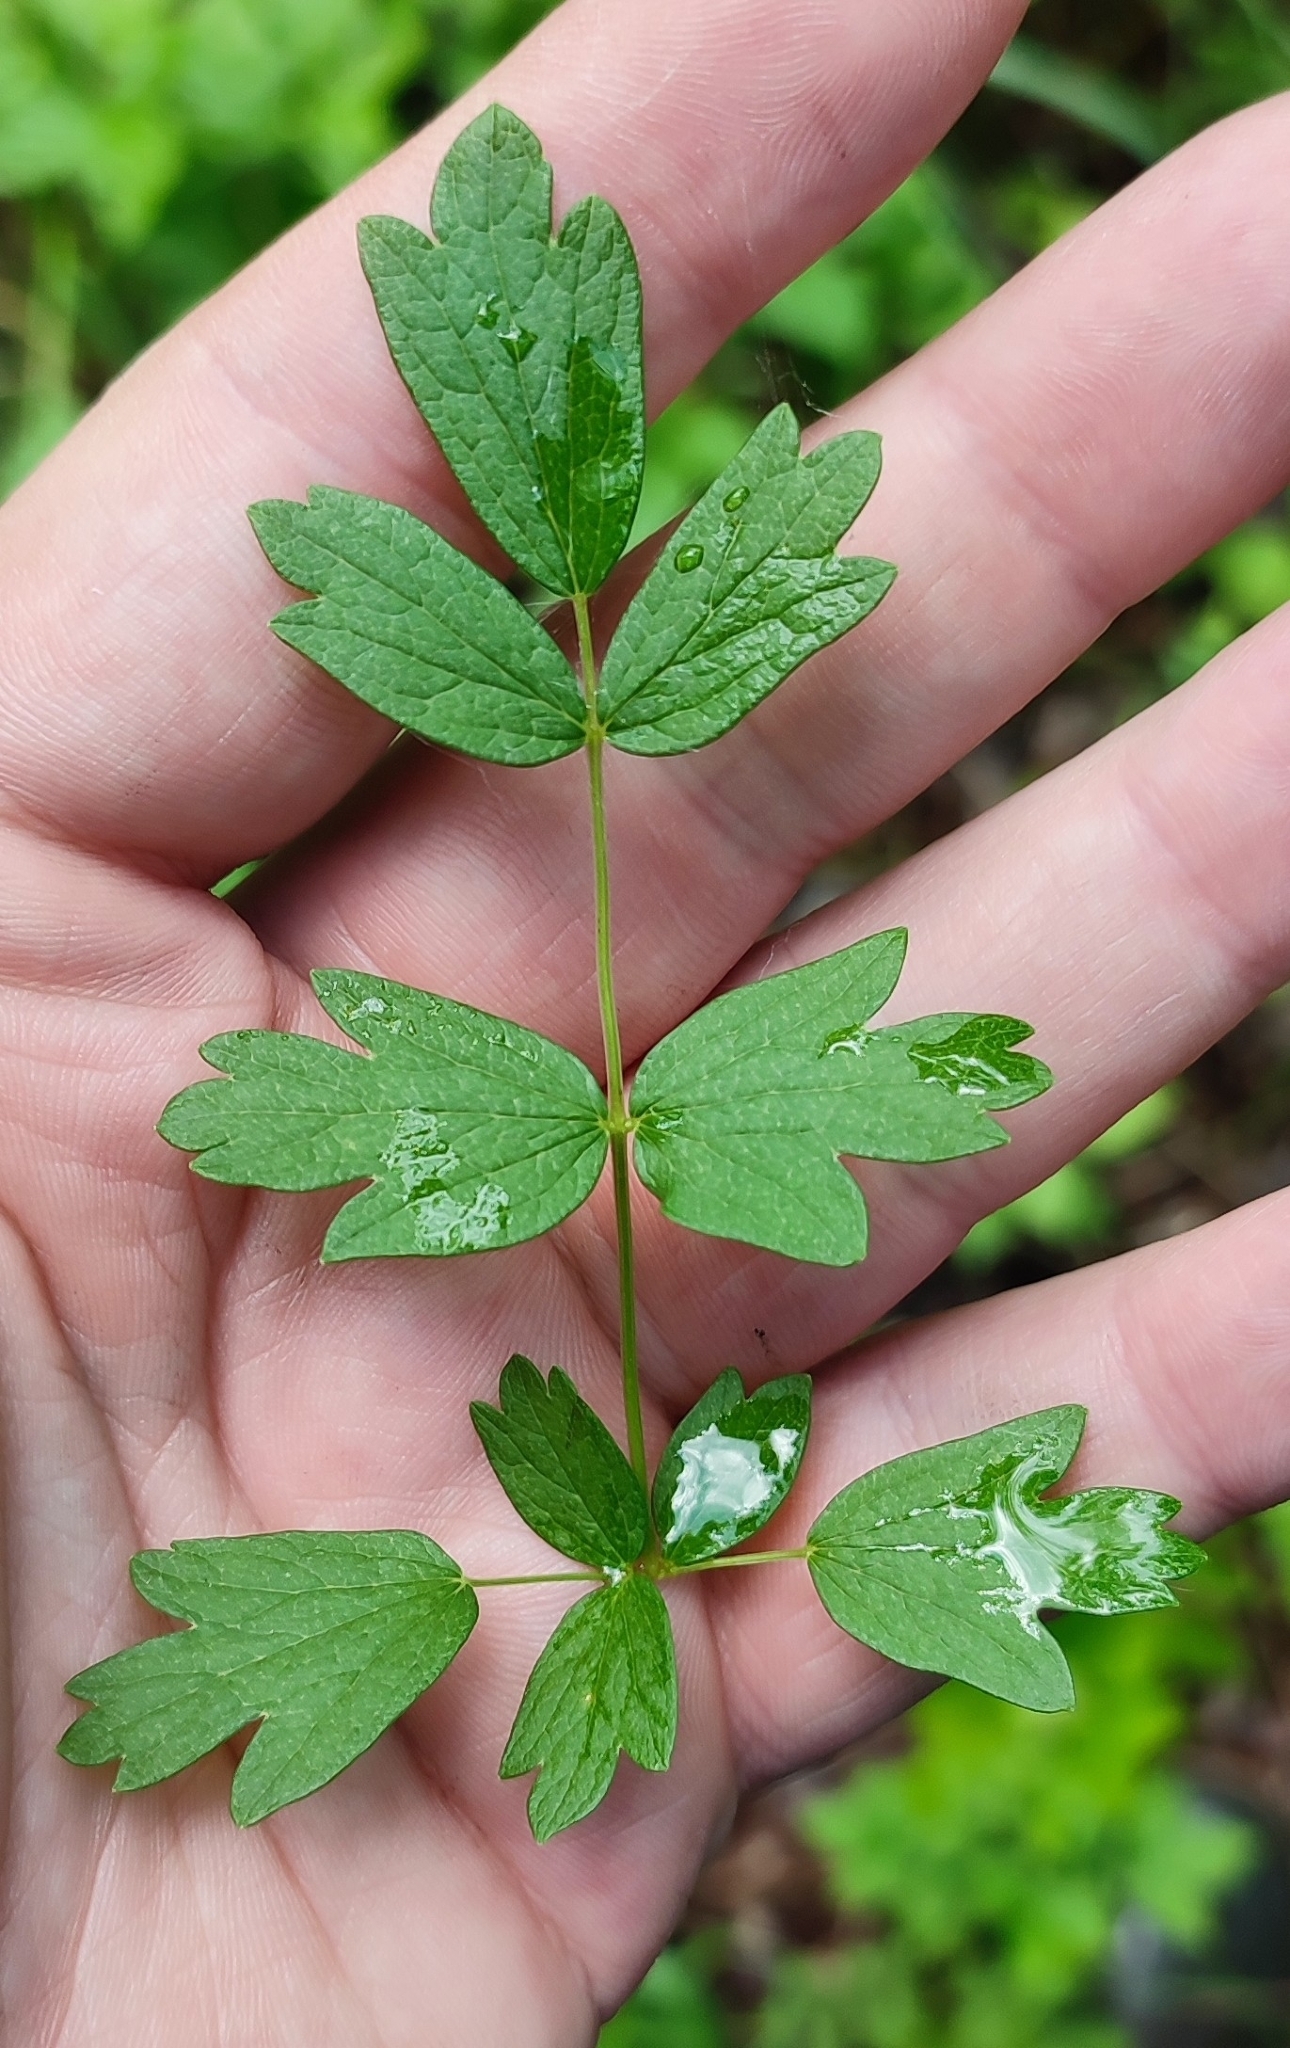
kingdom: Plantae
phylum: Tracheophyta
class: Magnoliopsida
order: Ranunculales
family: Ranunculaceae
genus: Thalictrum
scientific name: Thalictrum simplex
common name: Small meadow-rue
